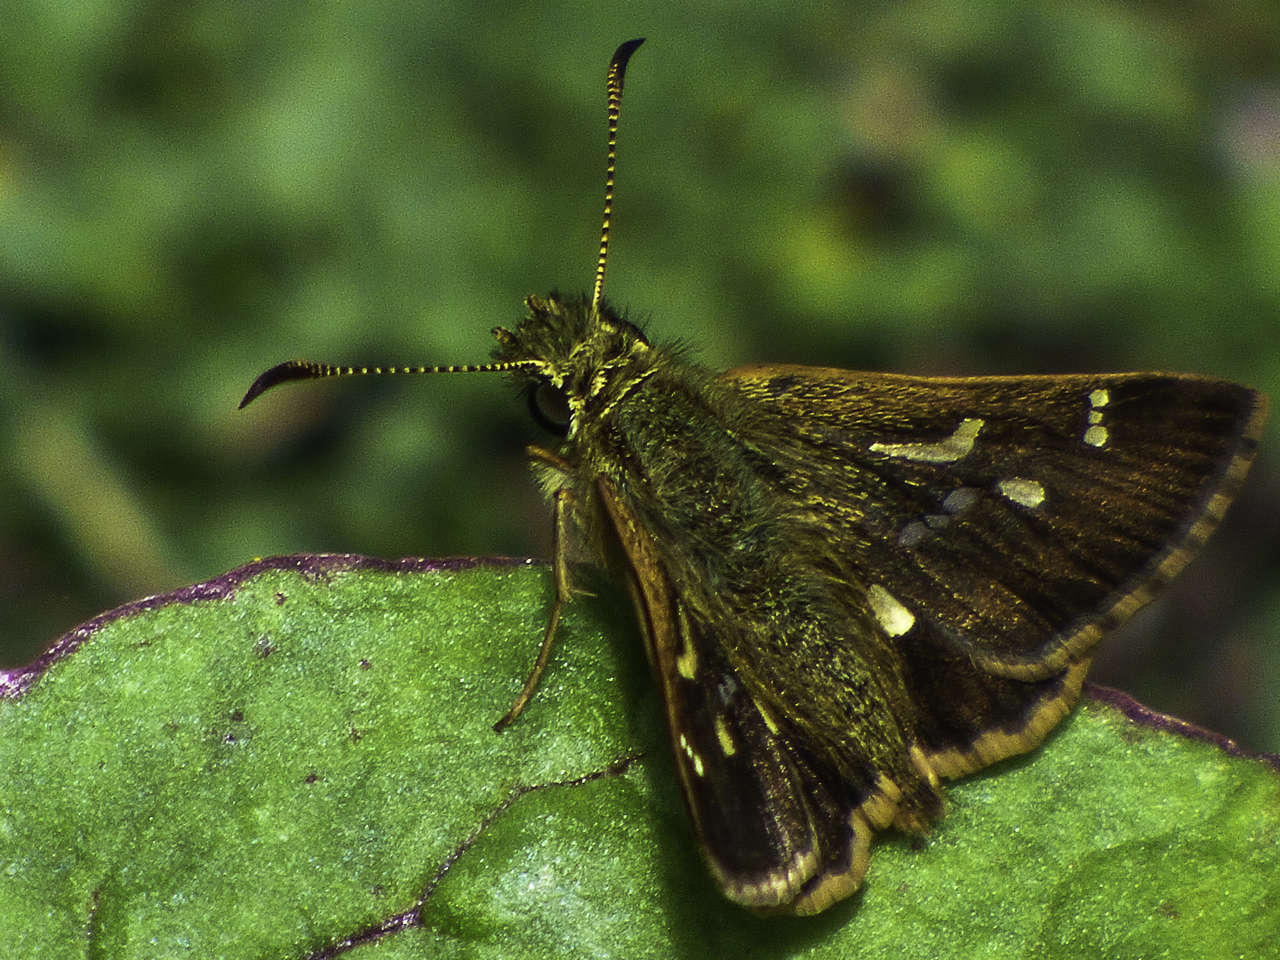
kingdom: Animalia
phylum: Arthropoda
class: Insecta
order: Lepidoptera
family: Hesperiidae
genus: Dispar
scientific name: Dispar compacta
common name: Barred skipper
